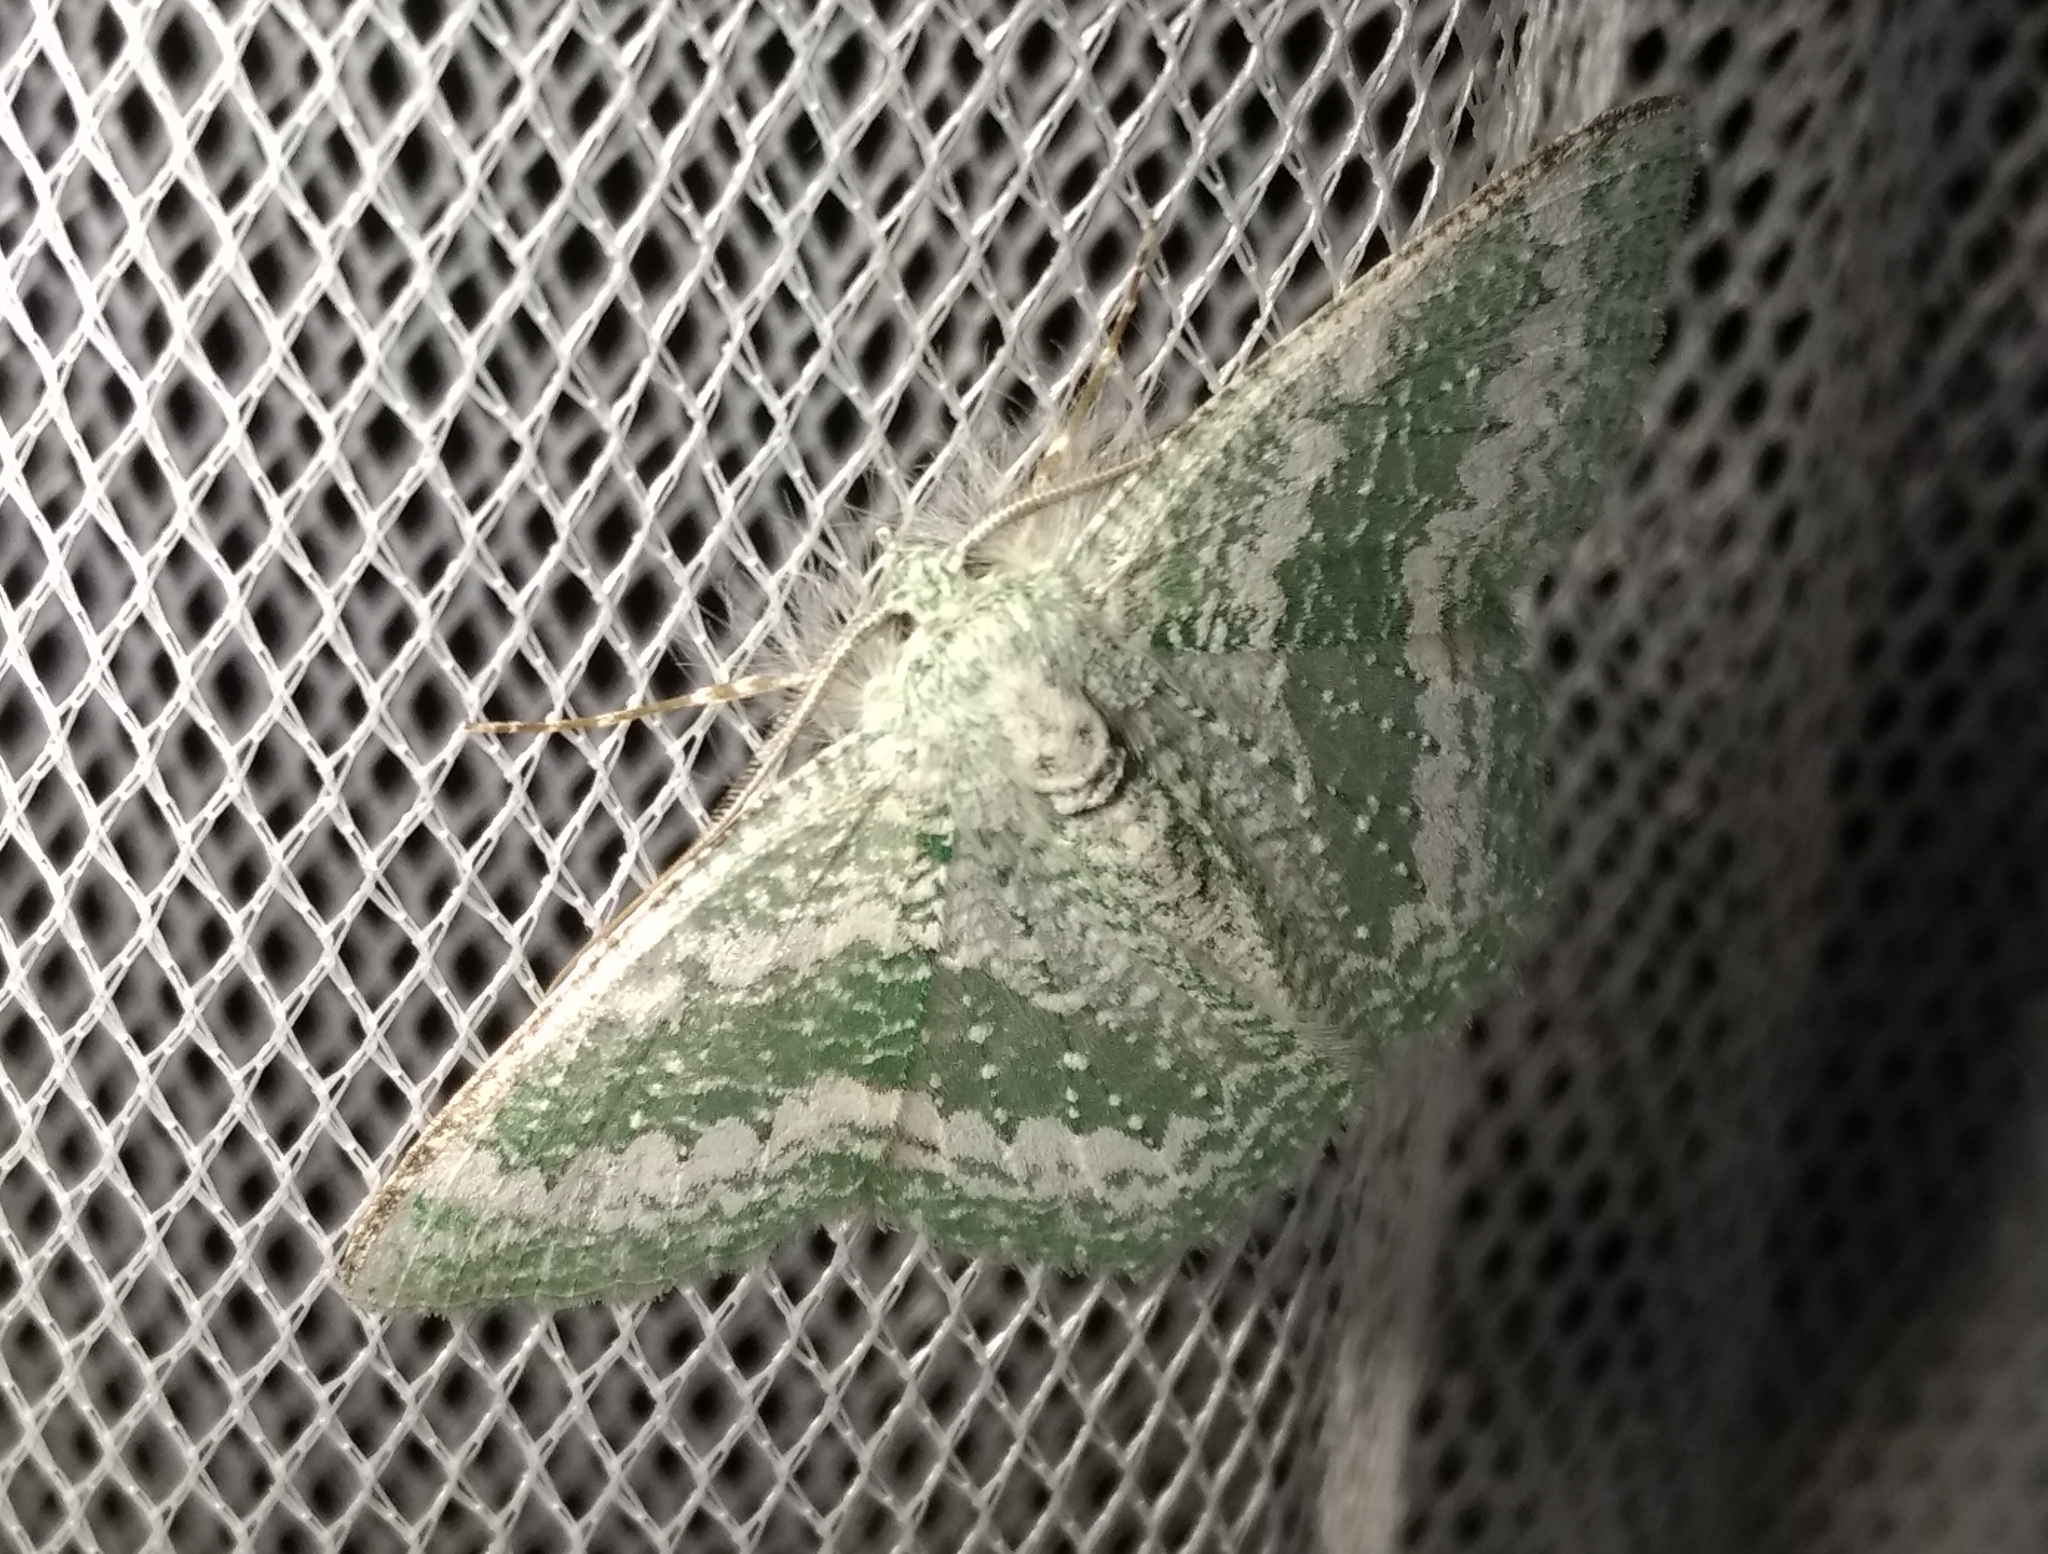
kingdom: Animalia
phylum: Arthropoda
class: Insecta
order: Lepidoptera
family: Geometridae
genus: Eucyclodes
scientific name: Eucyclodes pieroides
